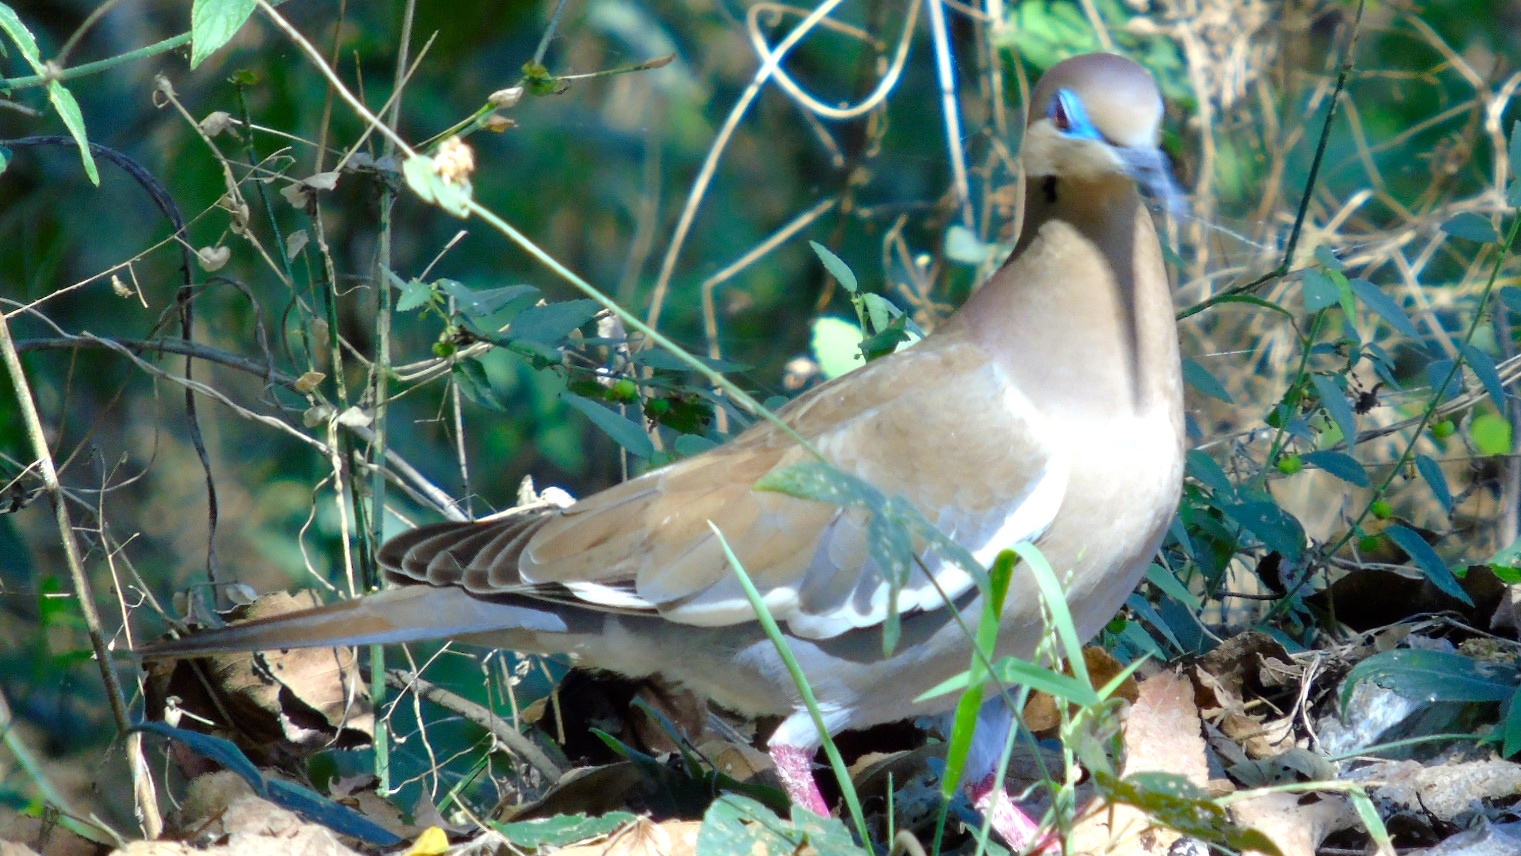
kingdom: Animalia
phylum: Chordata
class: Aves
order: Columbiformes
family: Columbidae
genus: Zenaida
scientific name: Zenaida asiatica
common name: White-winged dove
